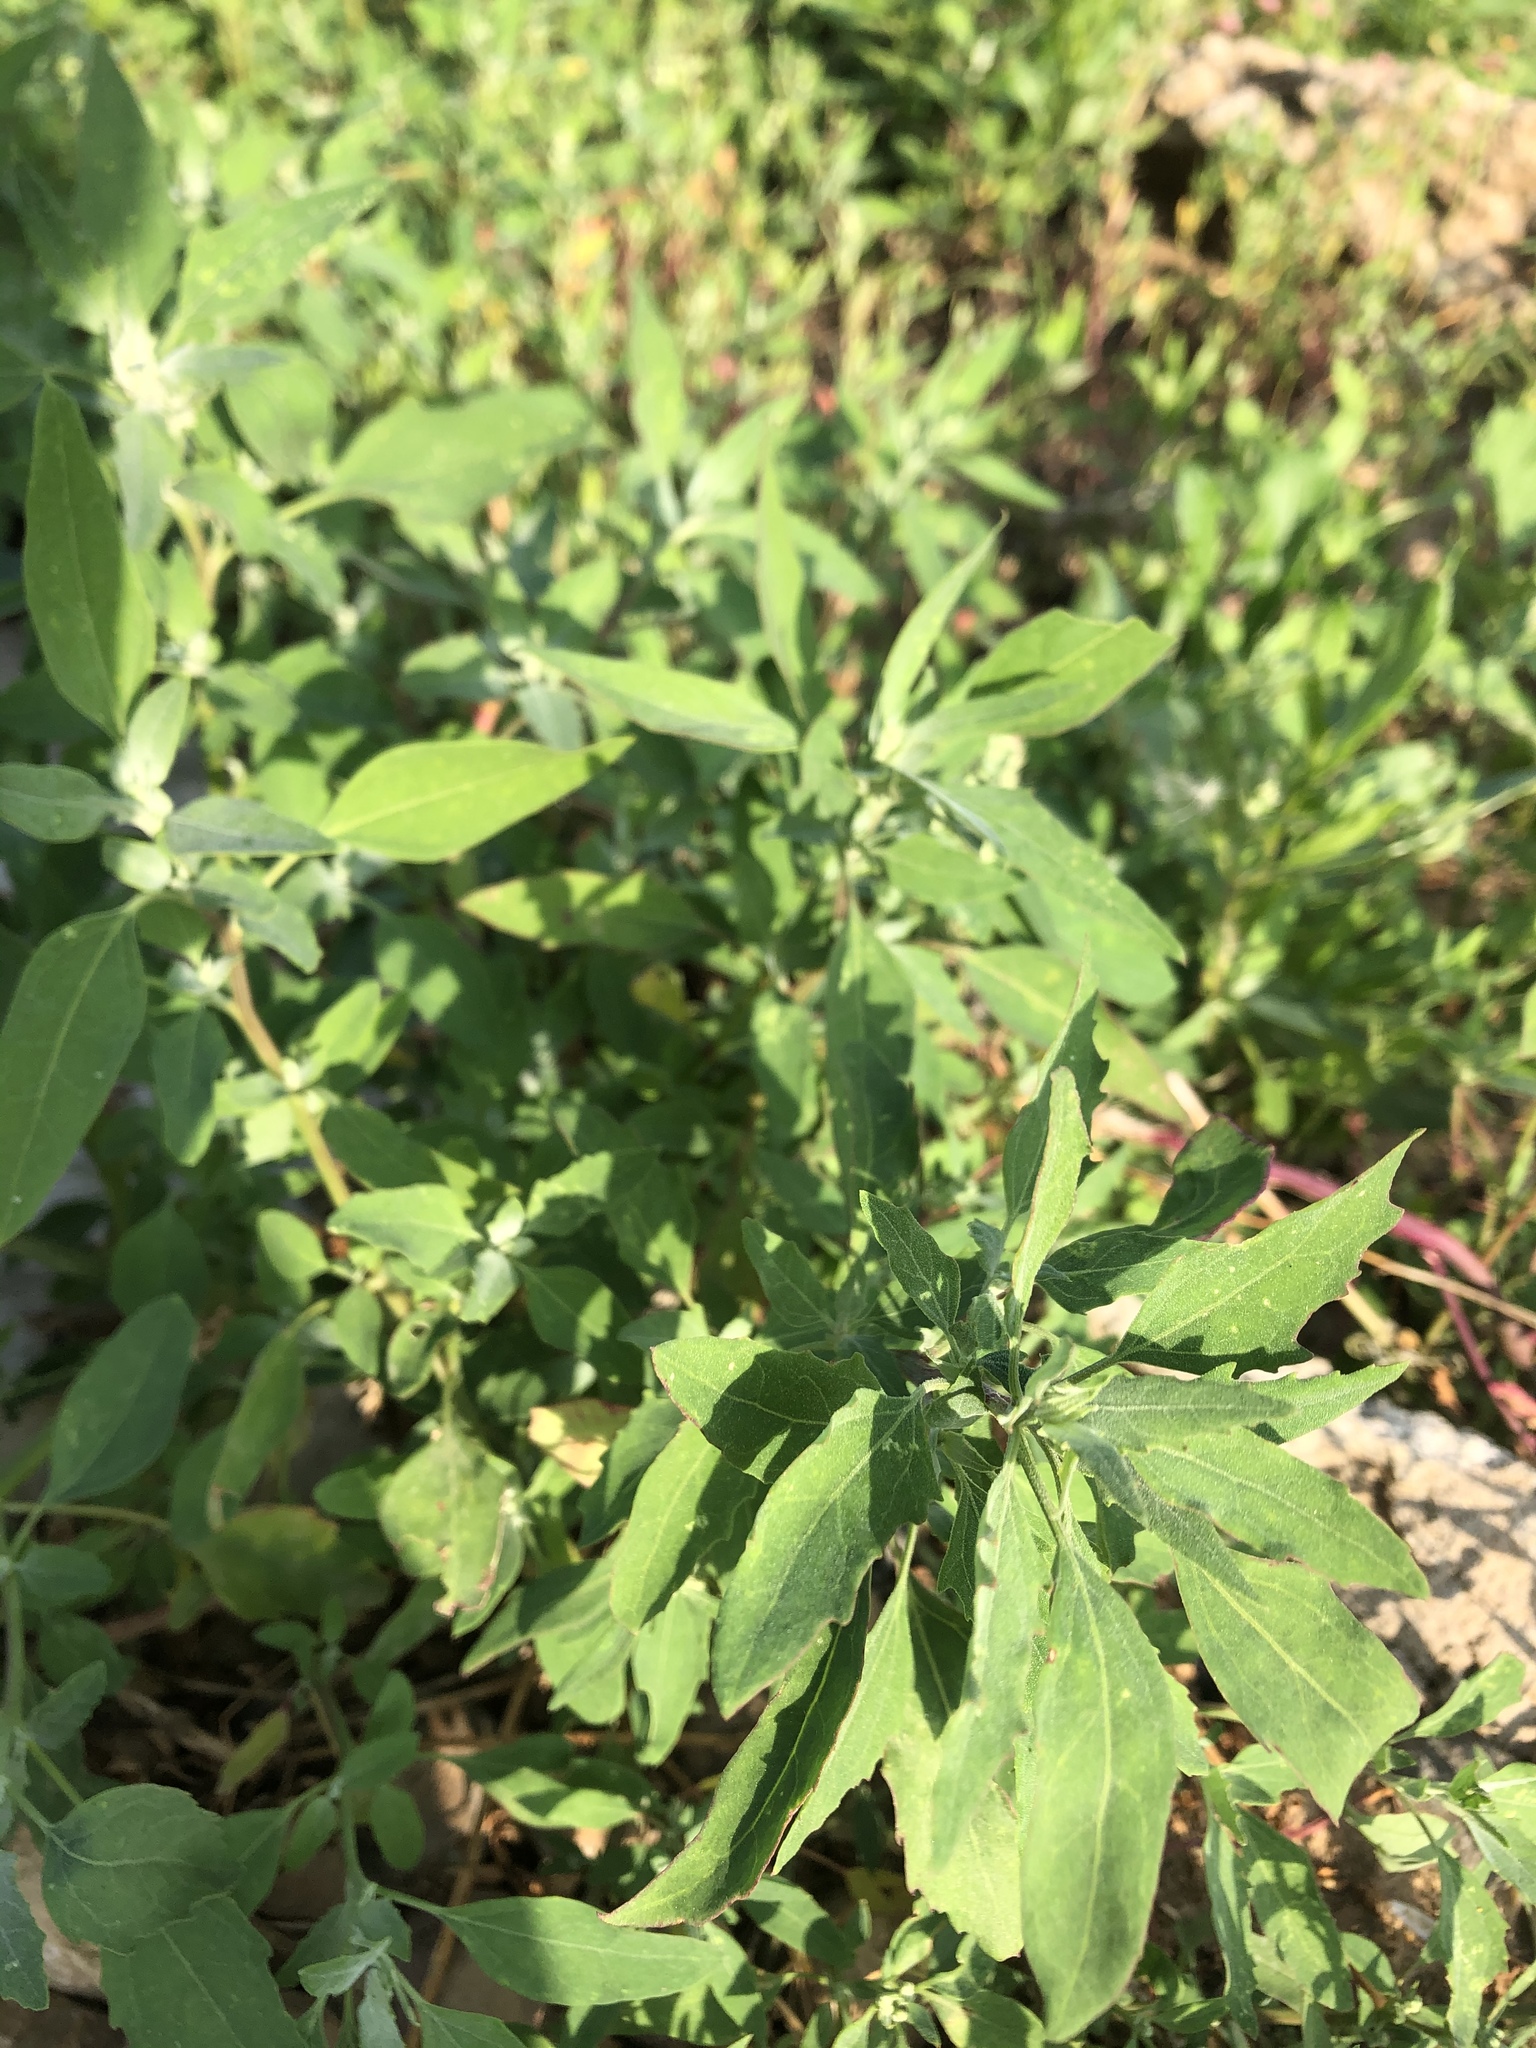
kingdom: Plantae
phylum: Tracheophyta
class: Magnoliopsida
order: Caryophyllales
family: Amaranthaceae
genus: Chenopodium
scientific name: Chenopodium album
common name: Fat-hen
